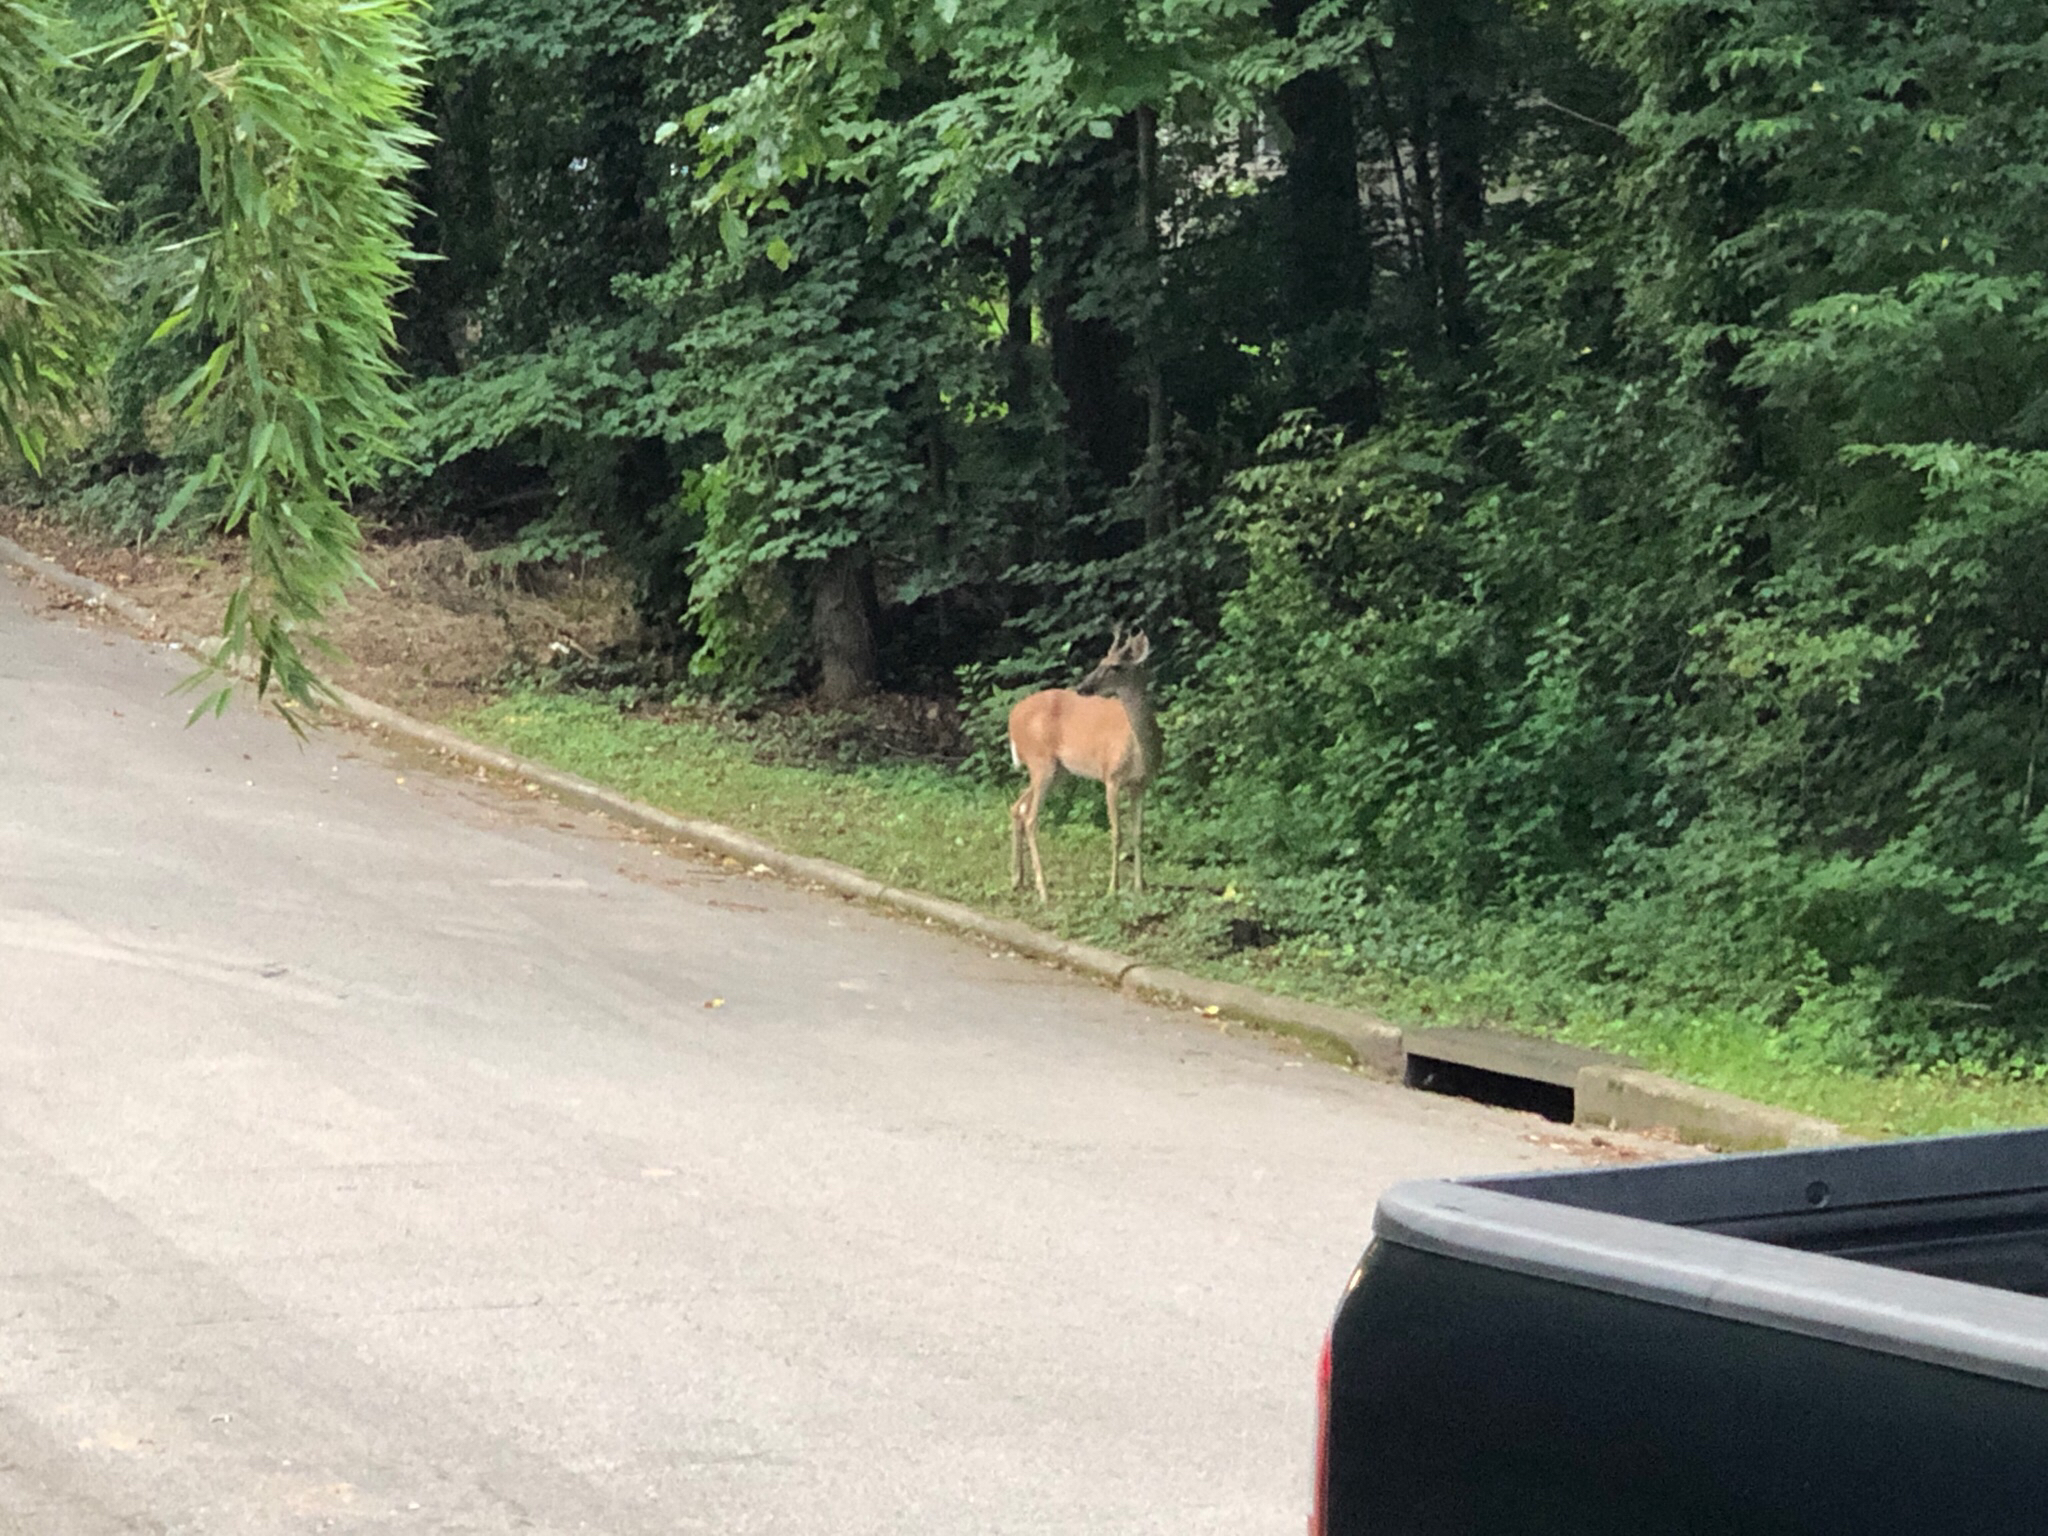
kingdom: Animalia
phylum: Chordata
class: Mammalia
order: Artiodactyla
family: Cervidae
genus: Odocoileus
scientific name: Odocoileus virginianus
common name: White-tailed deer
